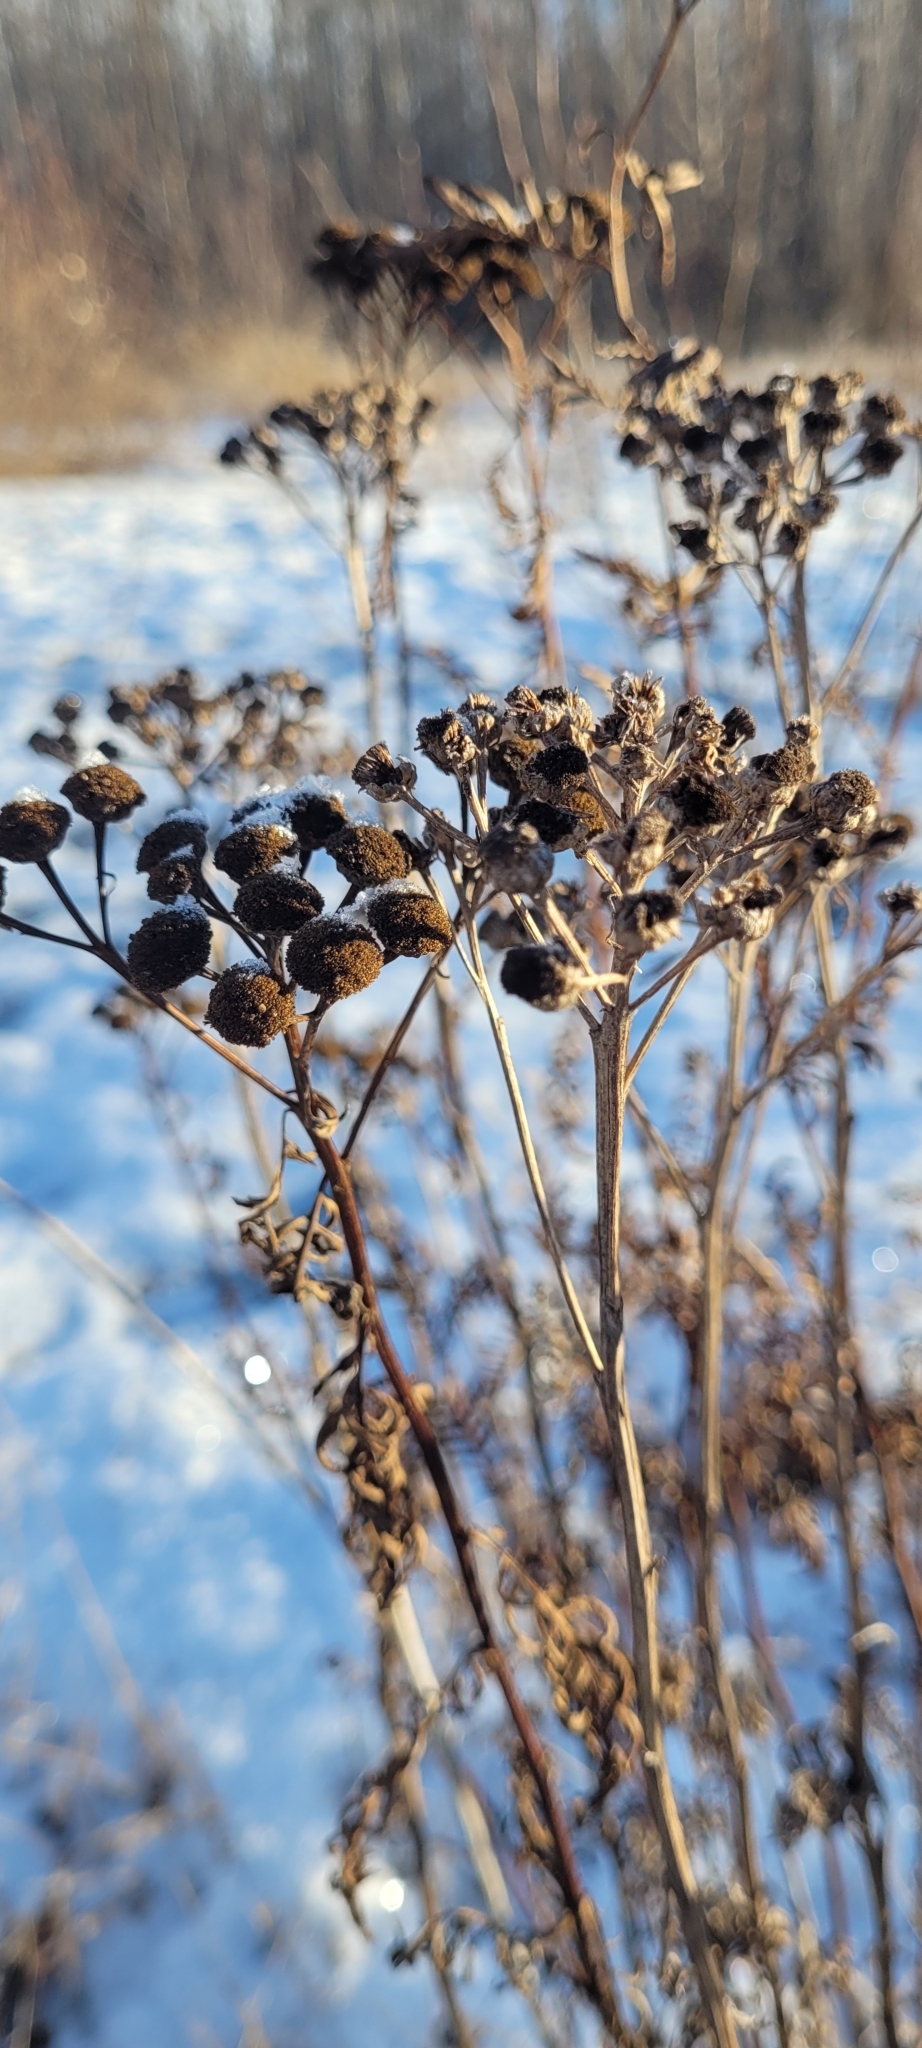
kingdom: Plantae
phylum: Tracheophyta
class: Magnoliopsida
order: Asterales
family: Asteraceae
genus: Tanacetum
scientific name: Tanacetum vulgare
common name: Common tansy
